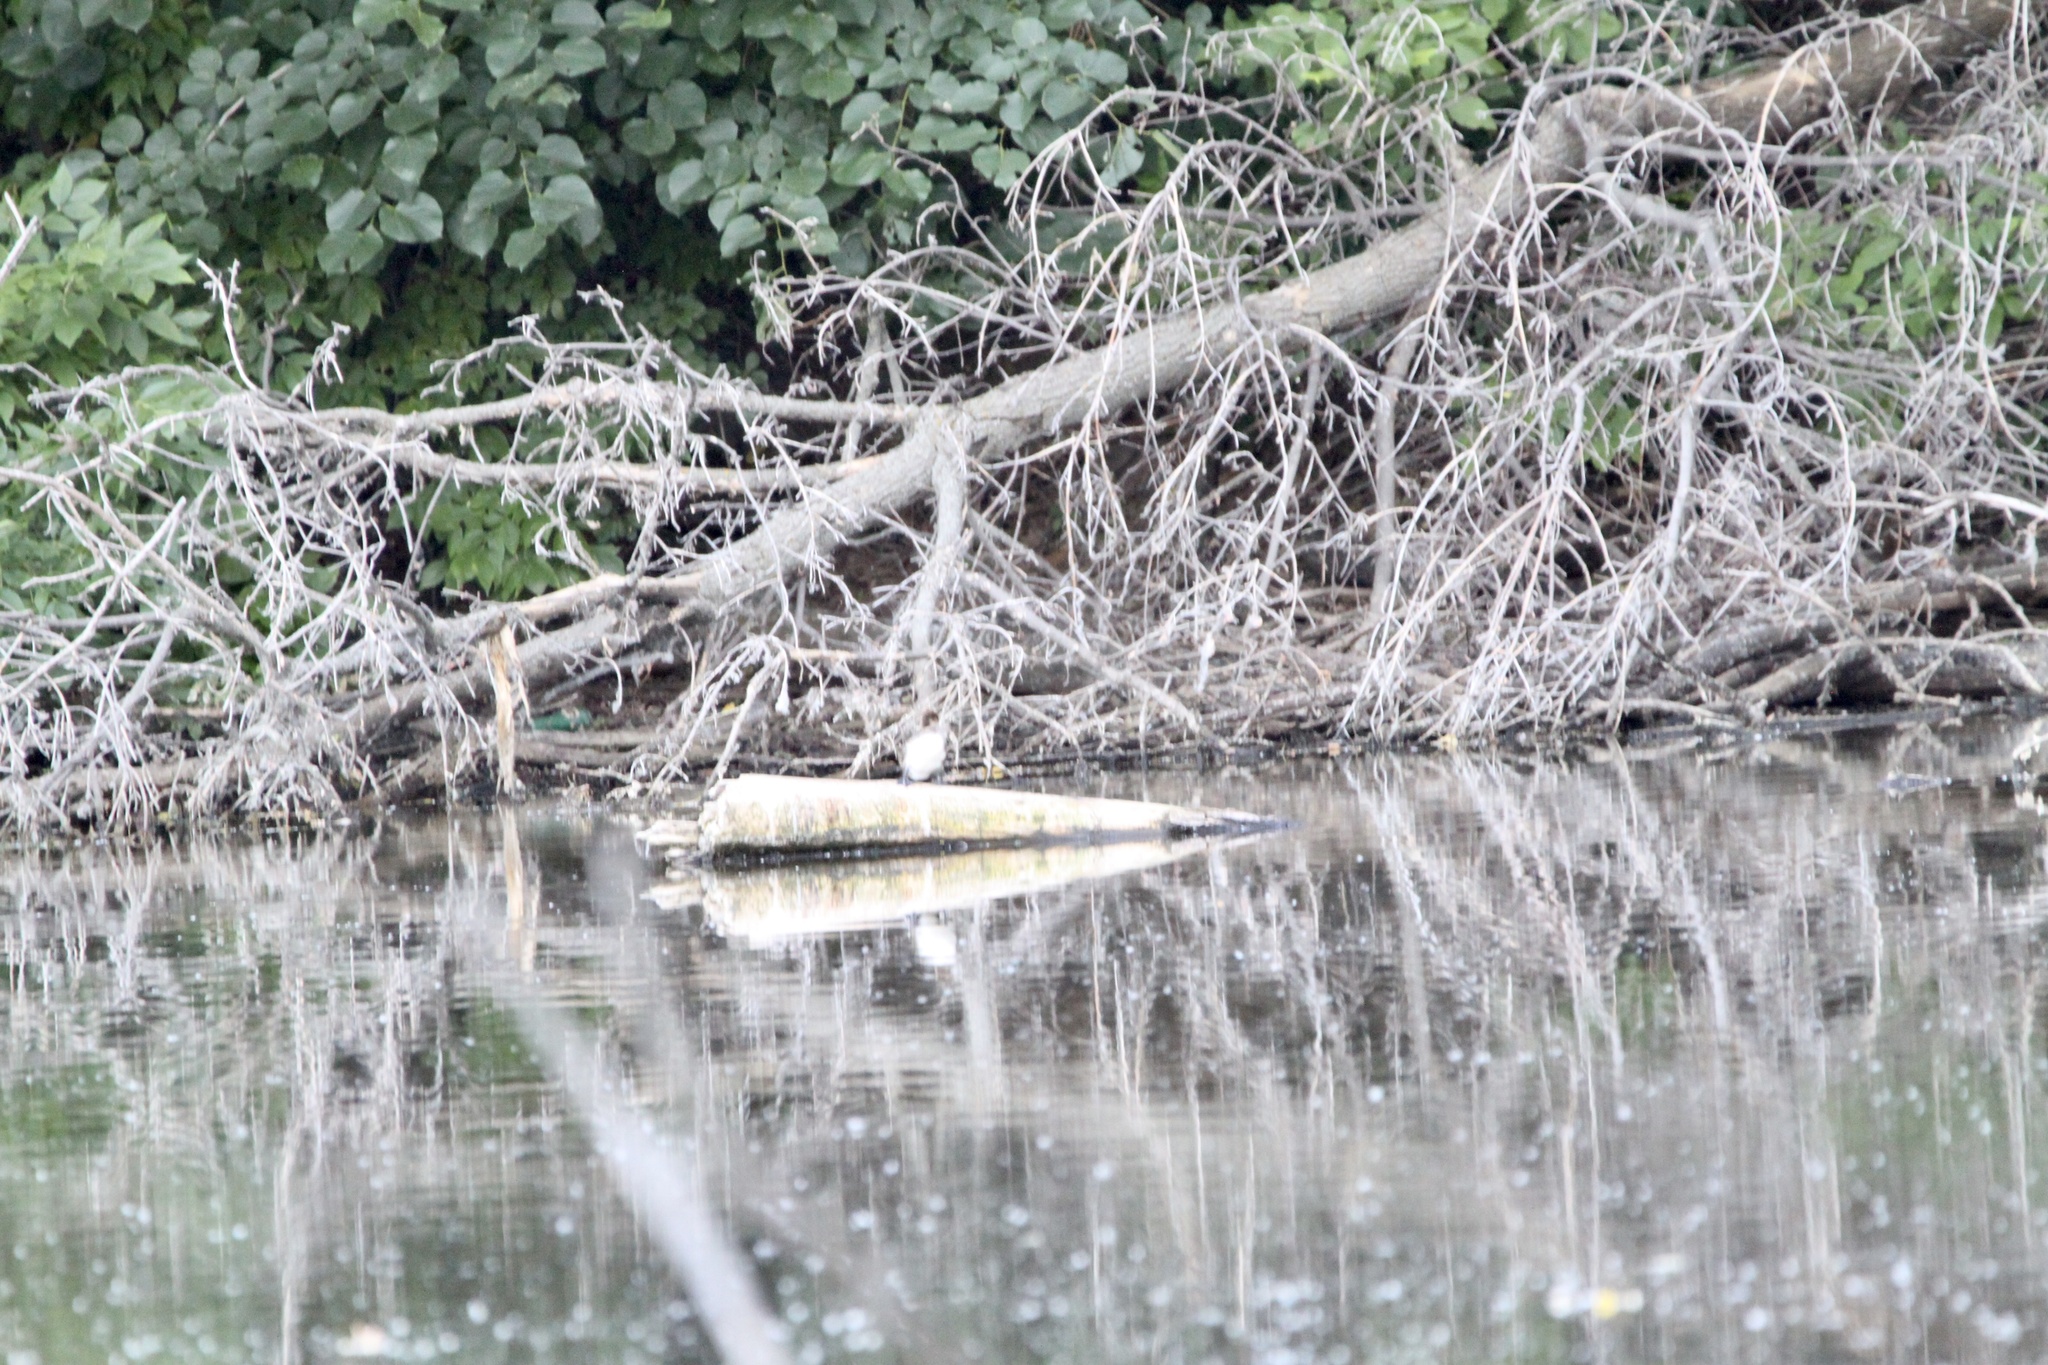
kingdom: Animalia
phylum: Chordata
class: Aves
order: Anseriformes
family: Anatidae
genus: Lophodytes
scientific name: Lophodytes cucullatus
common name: Hooded merganser
